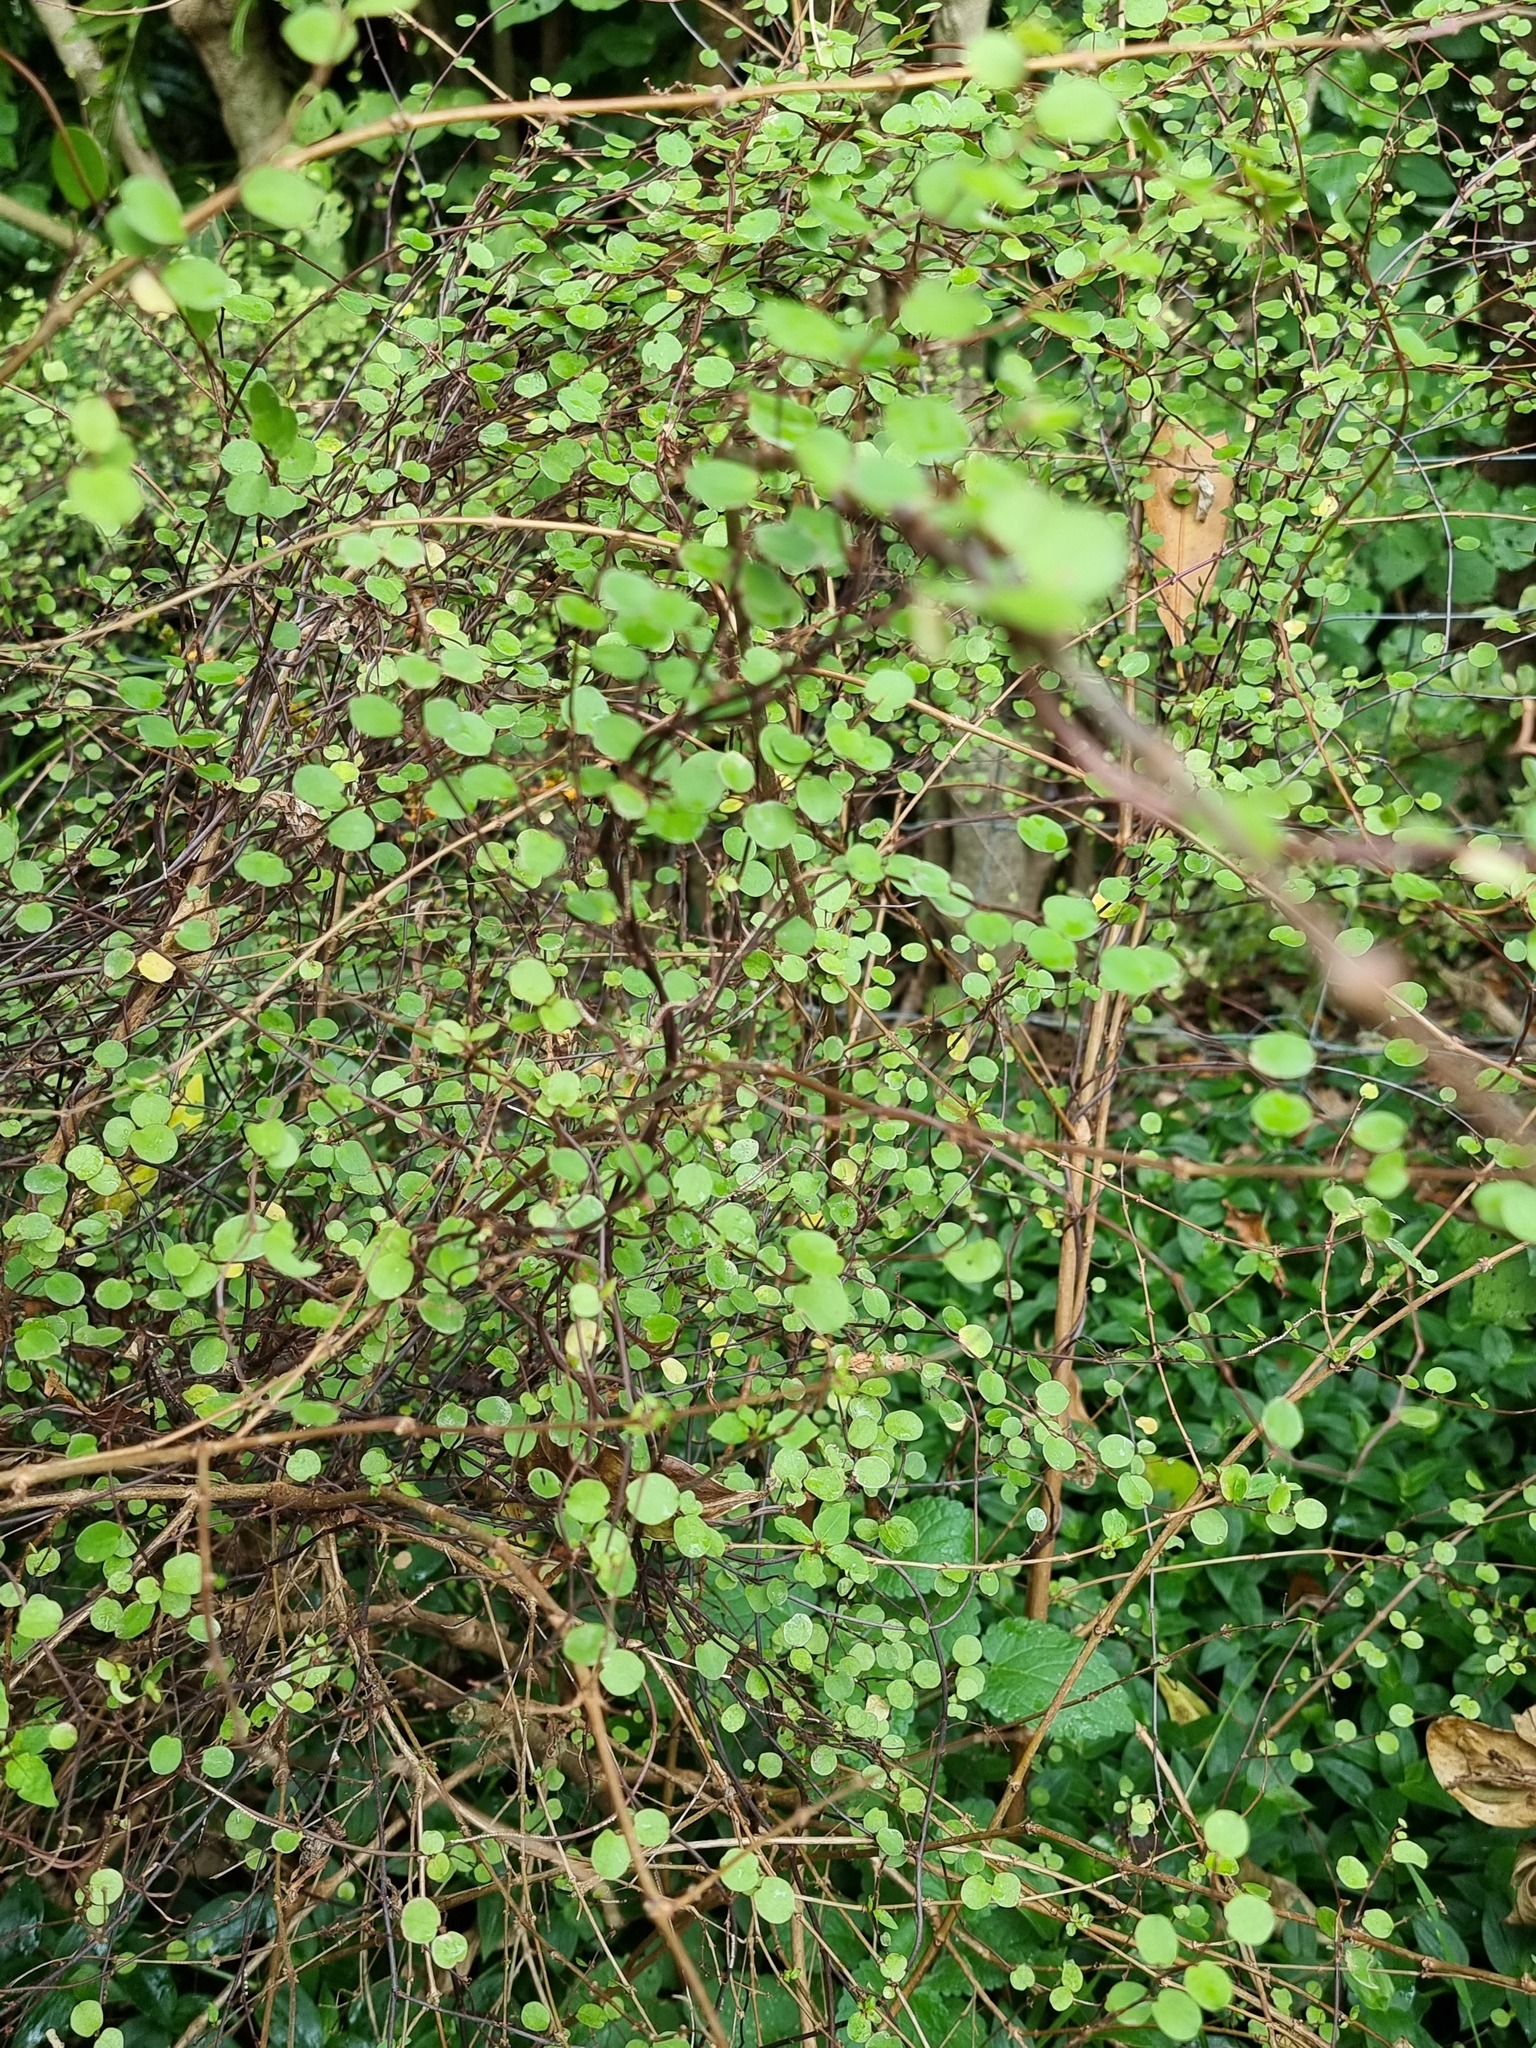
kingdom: Plantae
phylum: Tracheophyta
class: Magnoliopsida
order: Caryophyllales
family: Polygonaceae
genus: Muehlenbeckia
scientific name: Muehlenbeckia complexa
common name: Wireplant
